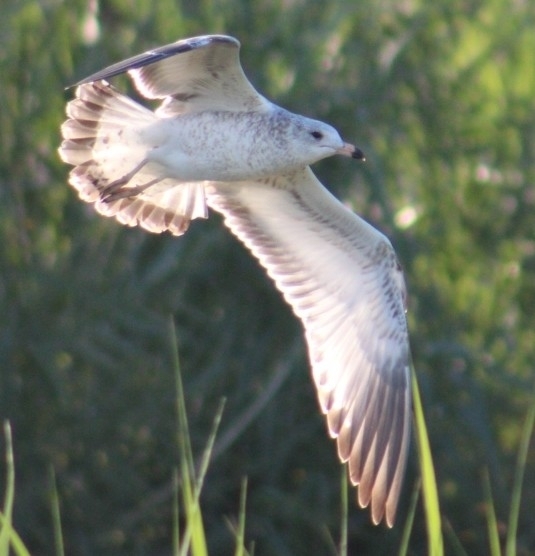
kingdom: Animalia
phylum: Chordata
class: Aves
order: Charadriiformes
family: Laridae
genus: Larus
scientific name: Larus delawarensis
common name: Ring-billed gull
